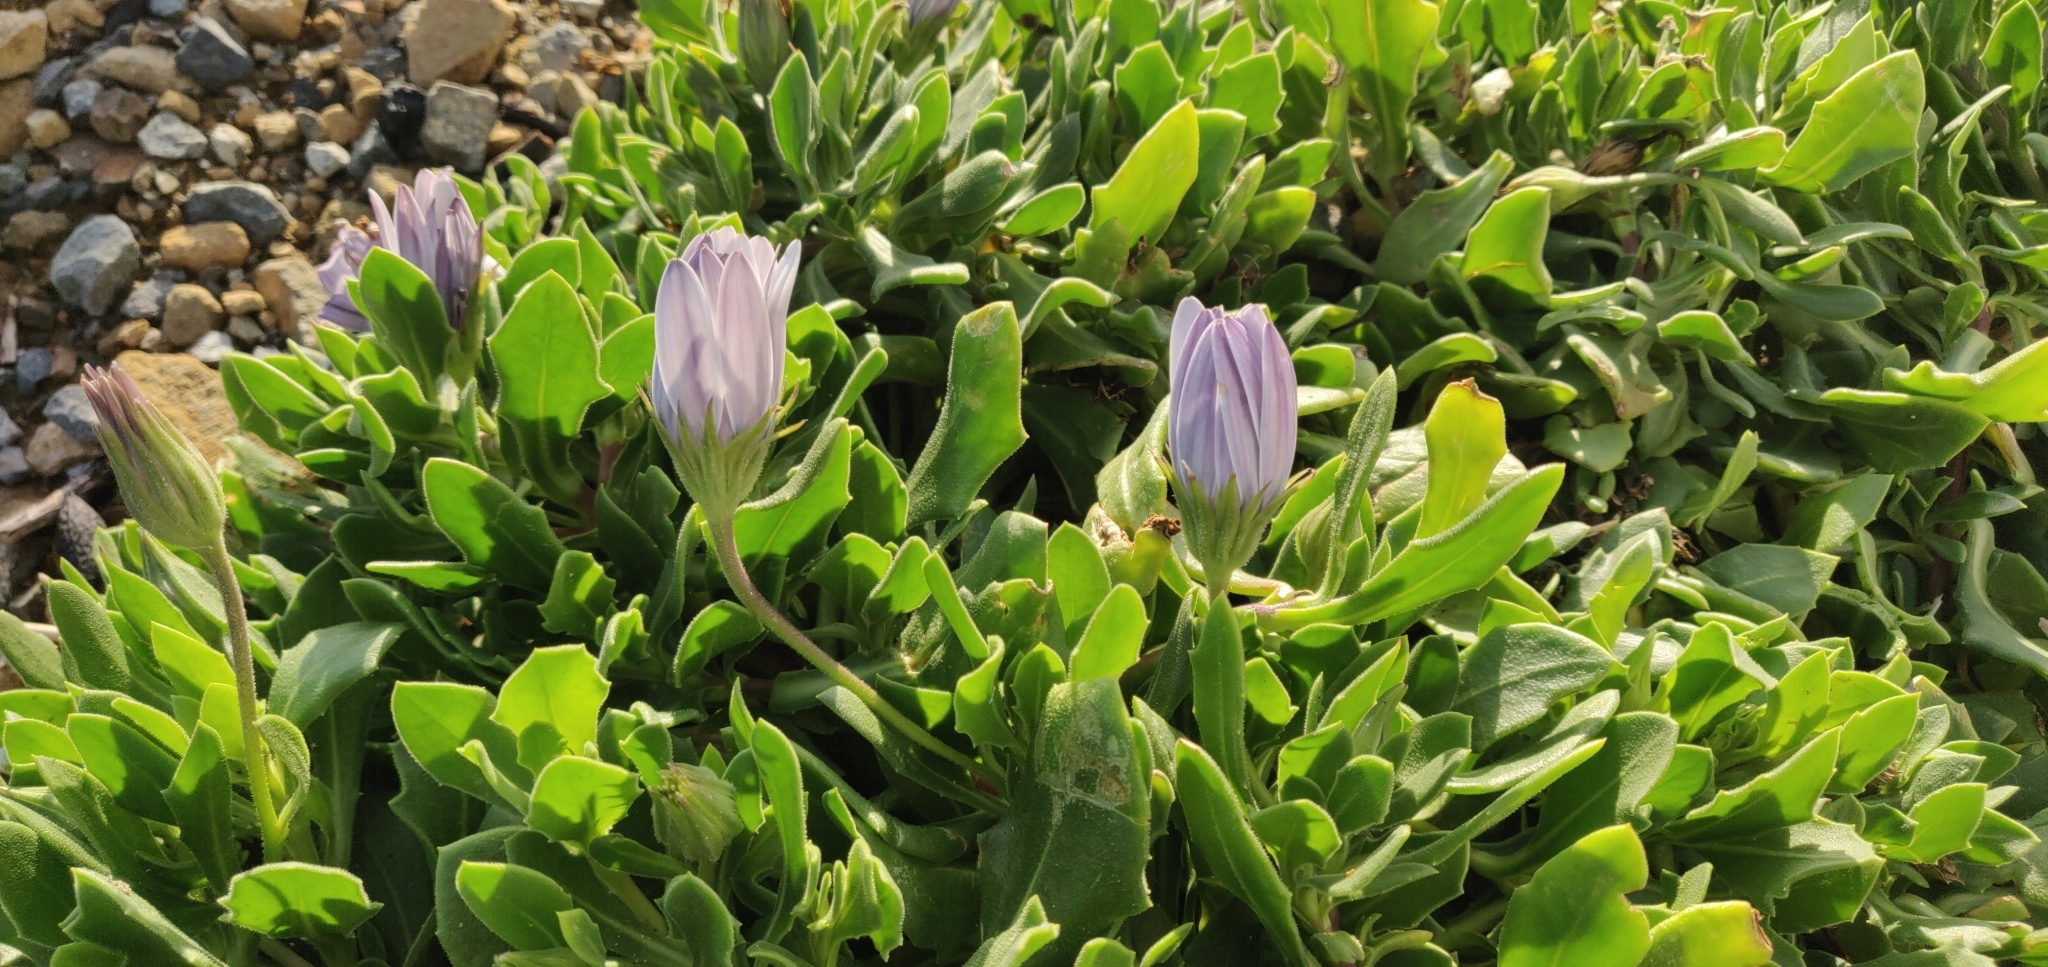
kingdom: Plantae
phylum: Tracheophyta
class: Magnoliopsida
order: Asterales
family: Asteraceae
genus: Dimorphotheca
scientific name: Dimorphotheca fruticosa
